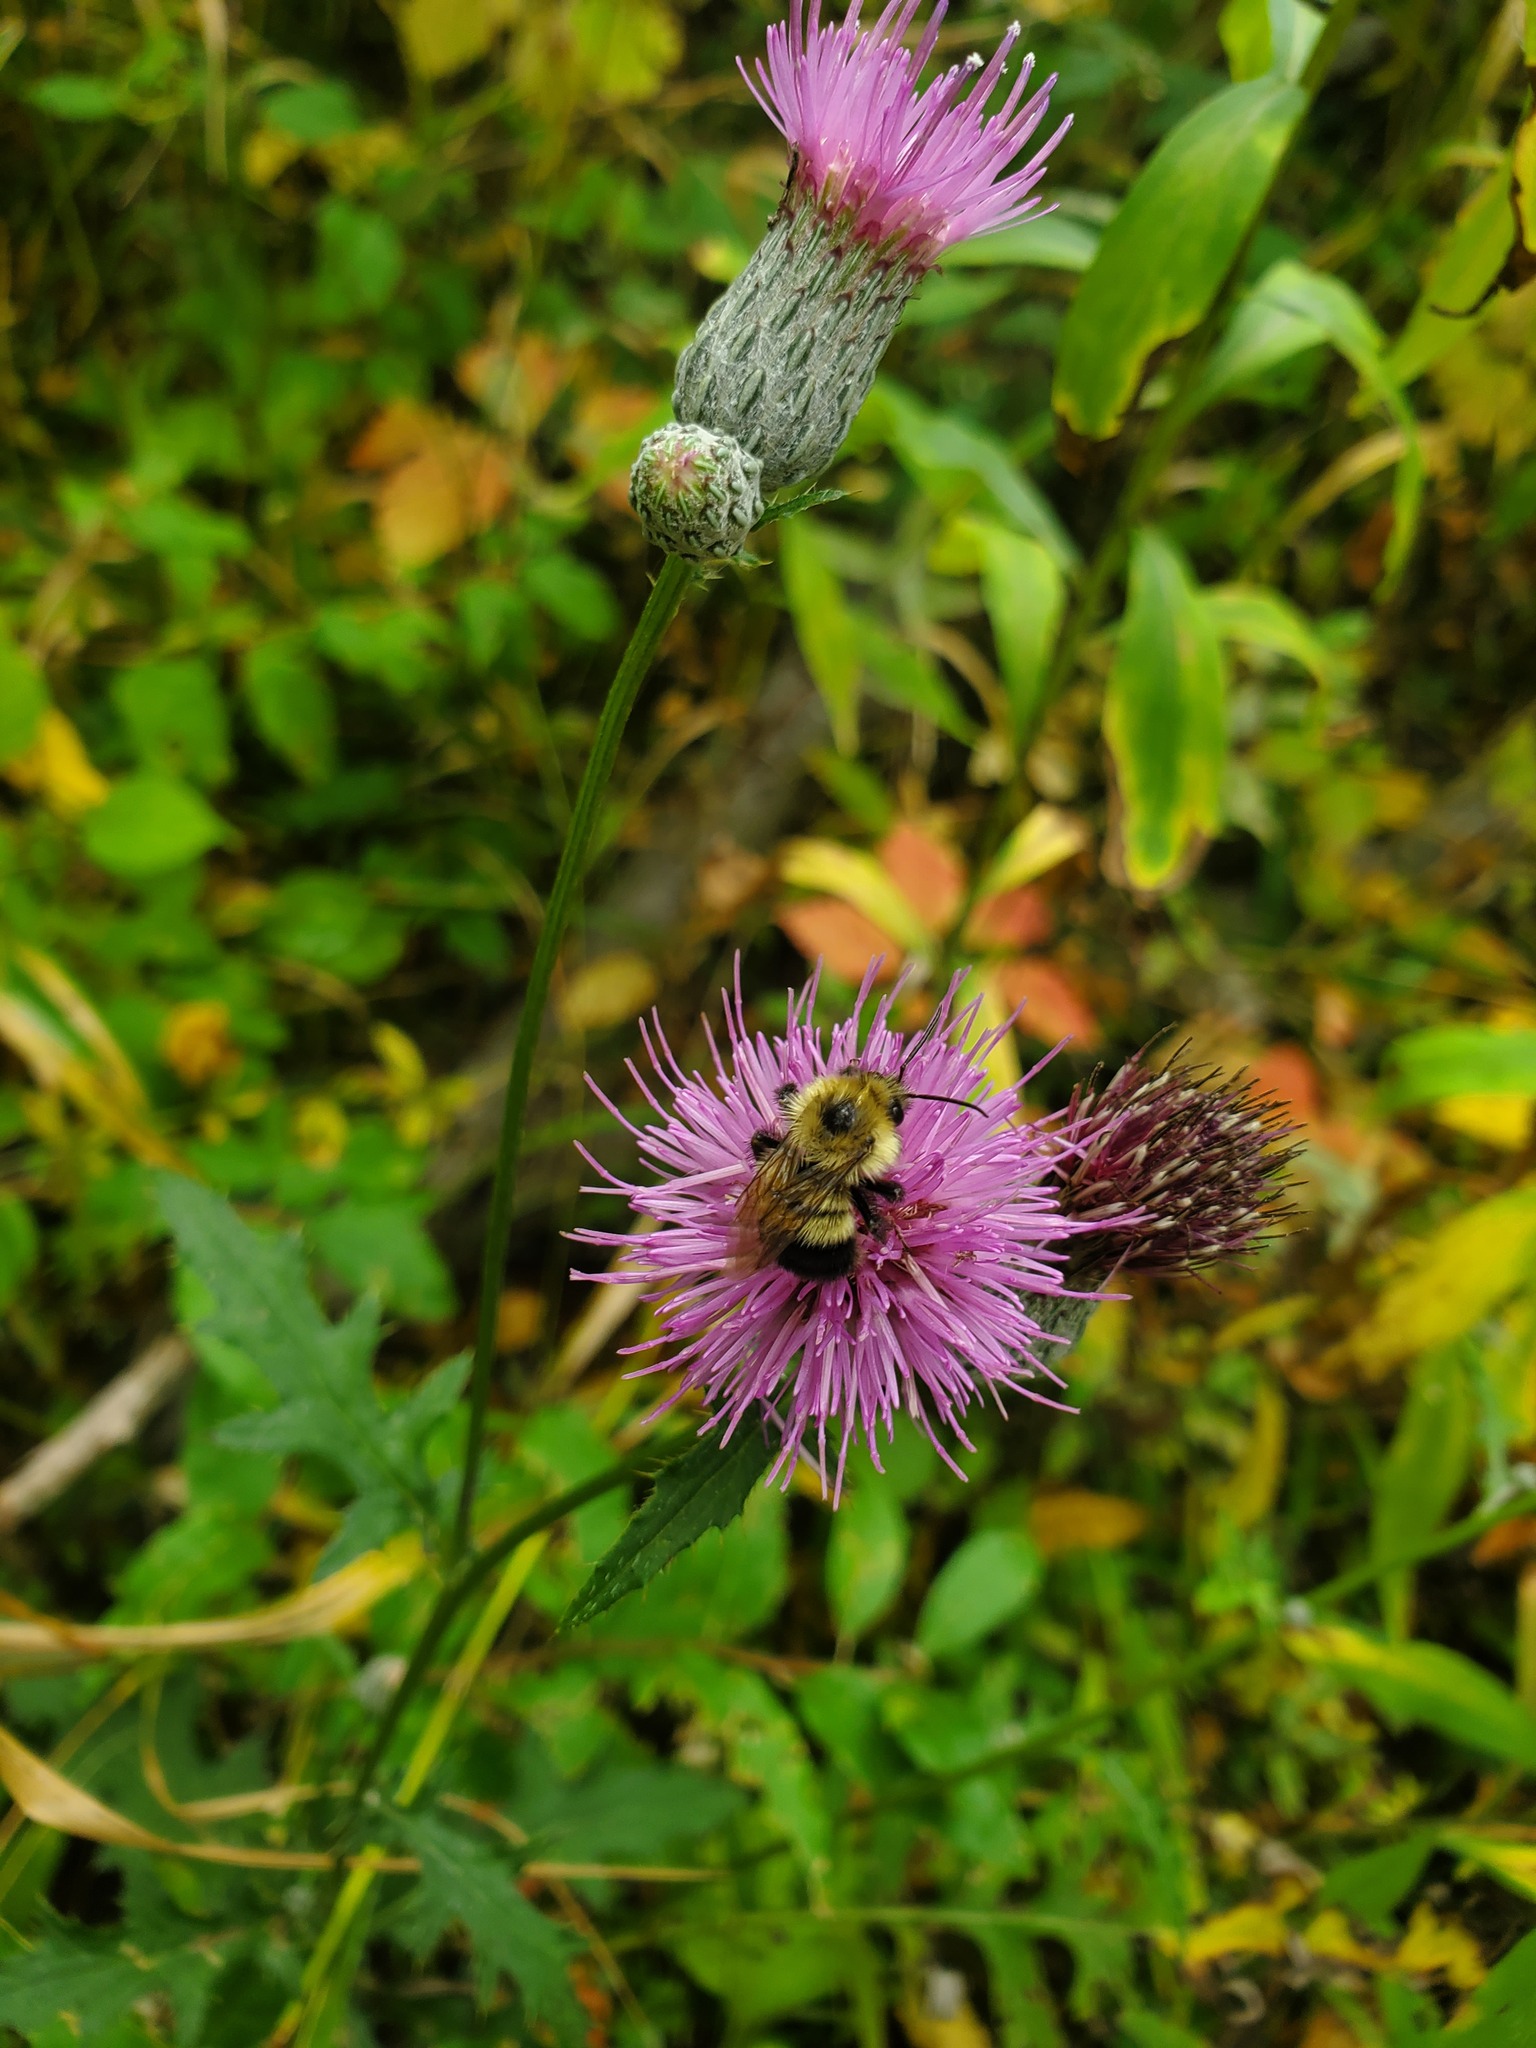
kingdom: Animalia
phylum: Arthropoda
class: Insecta
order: Hymenoptera
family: Apidae
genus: Pyrobombus
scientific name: Pyrobombus
